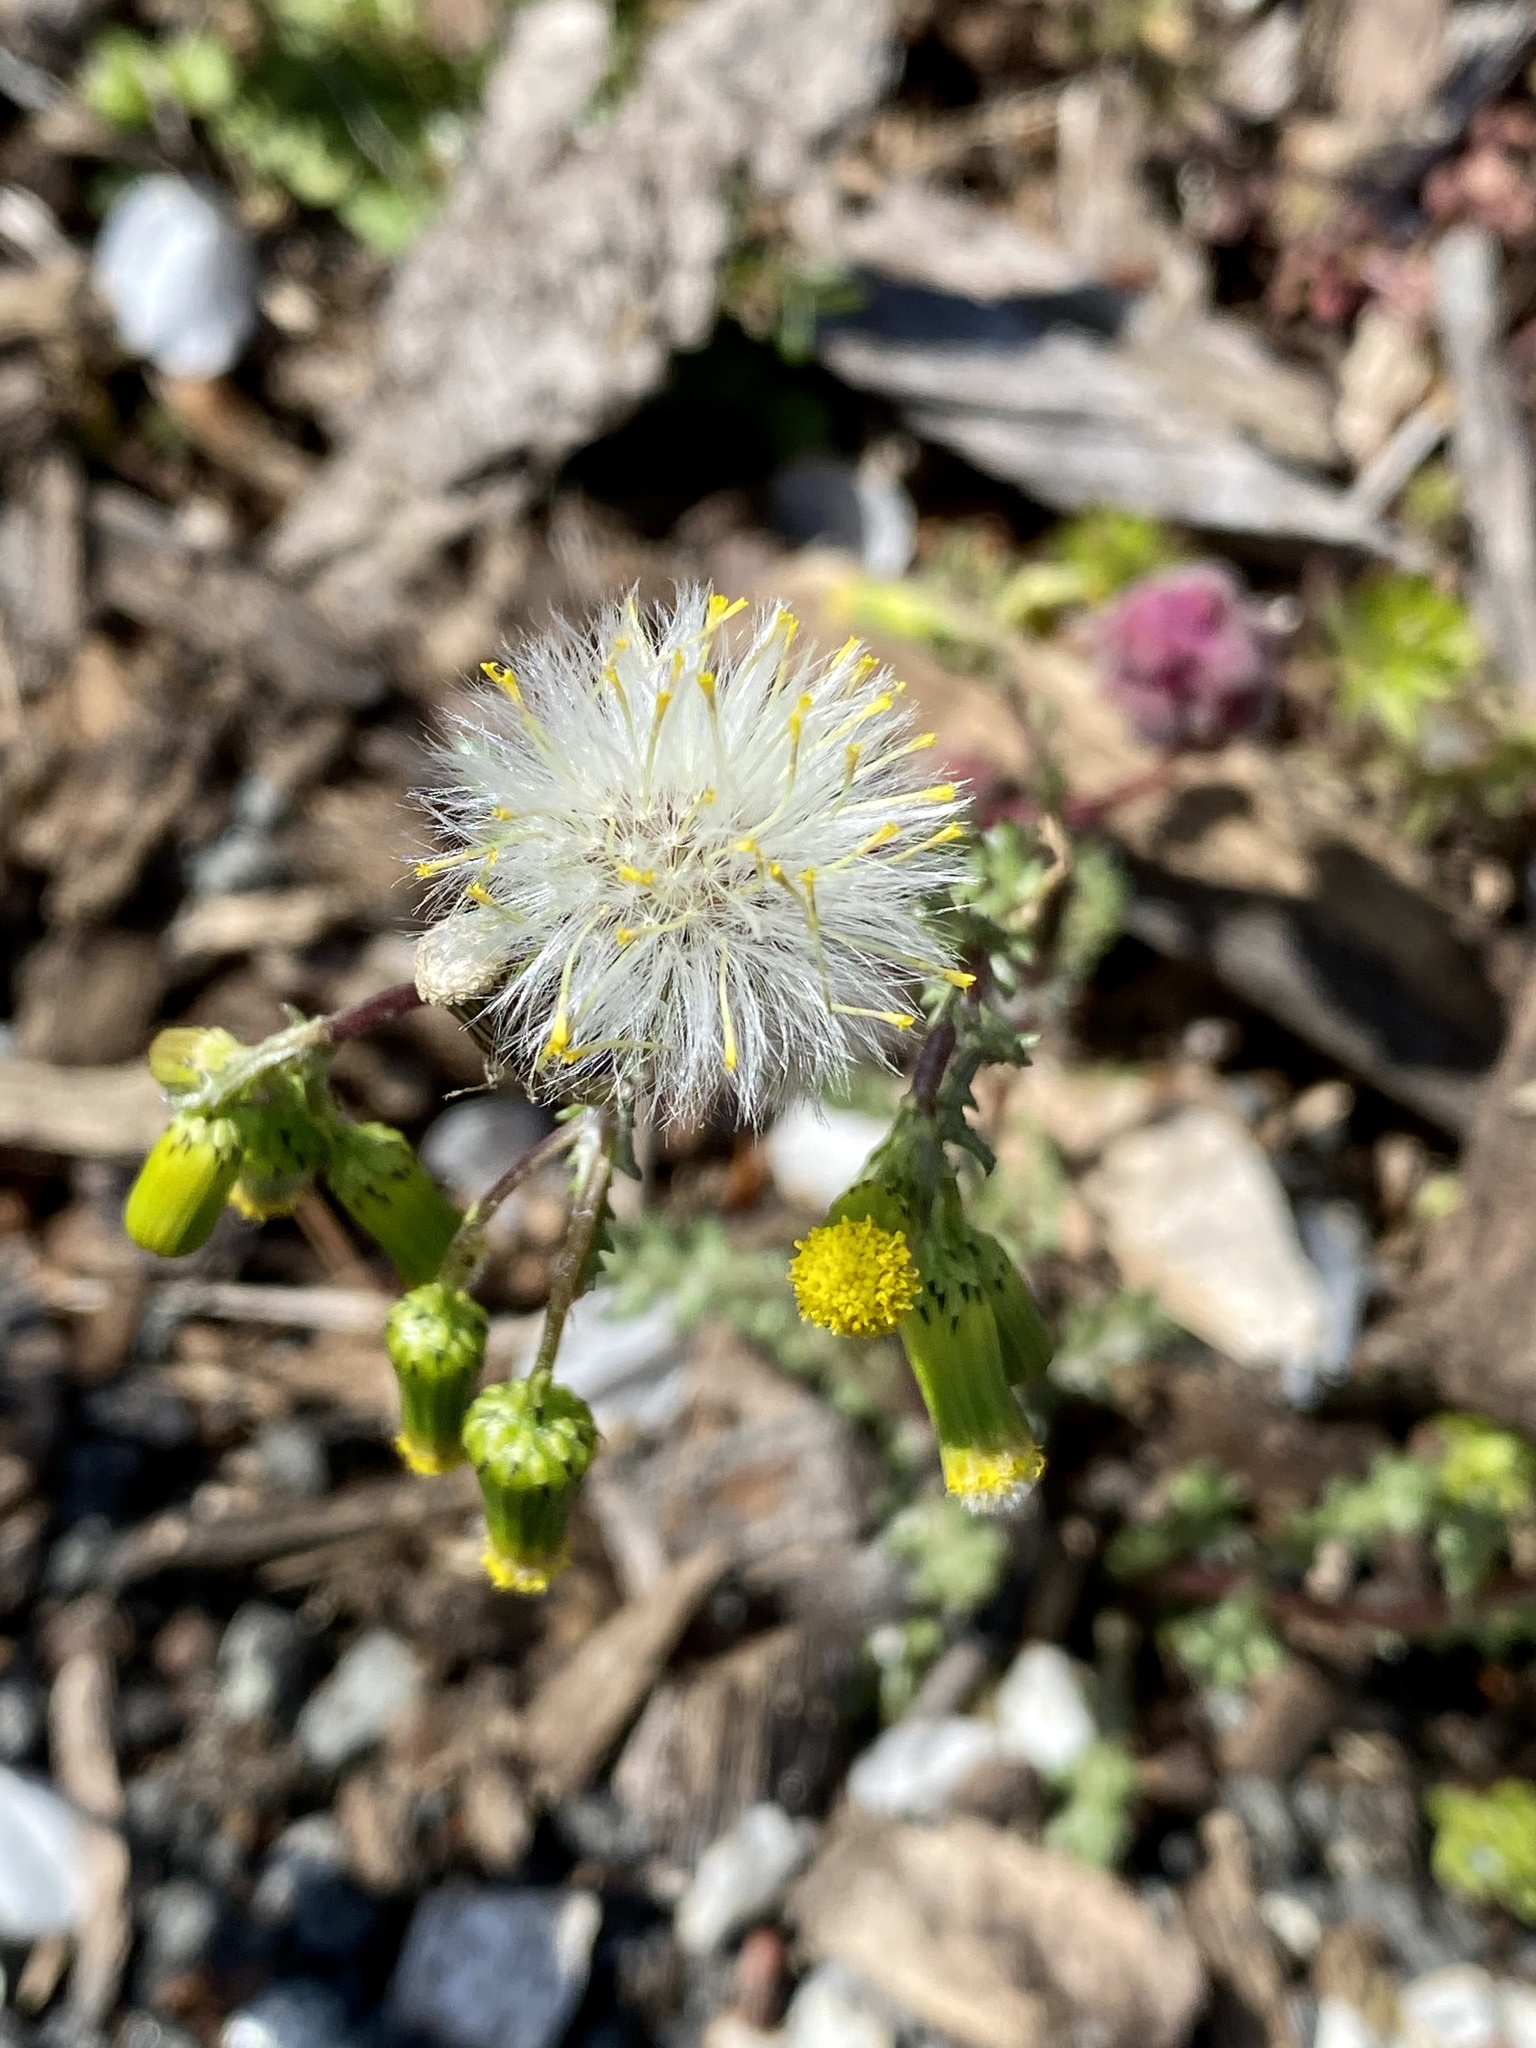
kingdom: Plantae
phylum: Tracheophyta
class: Magnoliopsida
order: Asterales
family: Asteraceae
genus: Senecio
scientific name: Senecio vulgaris
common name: Old-man-in-the-spring
